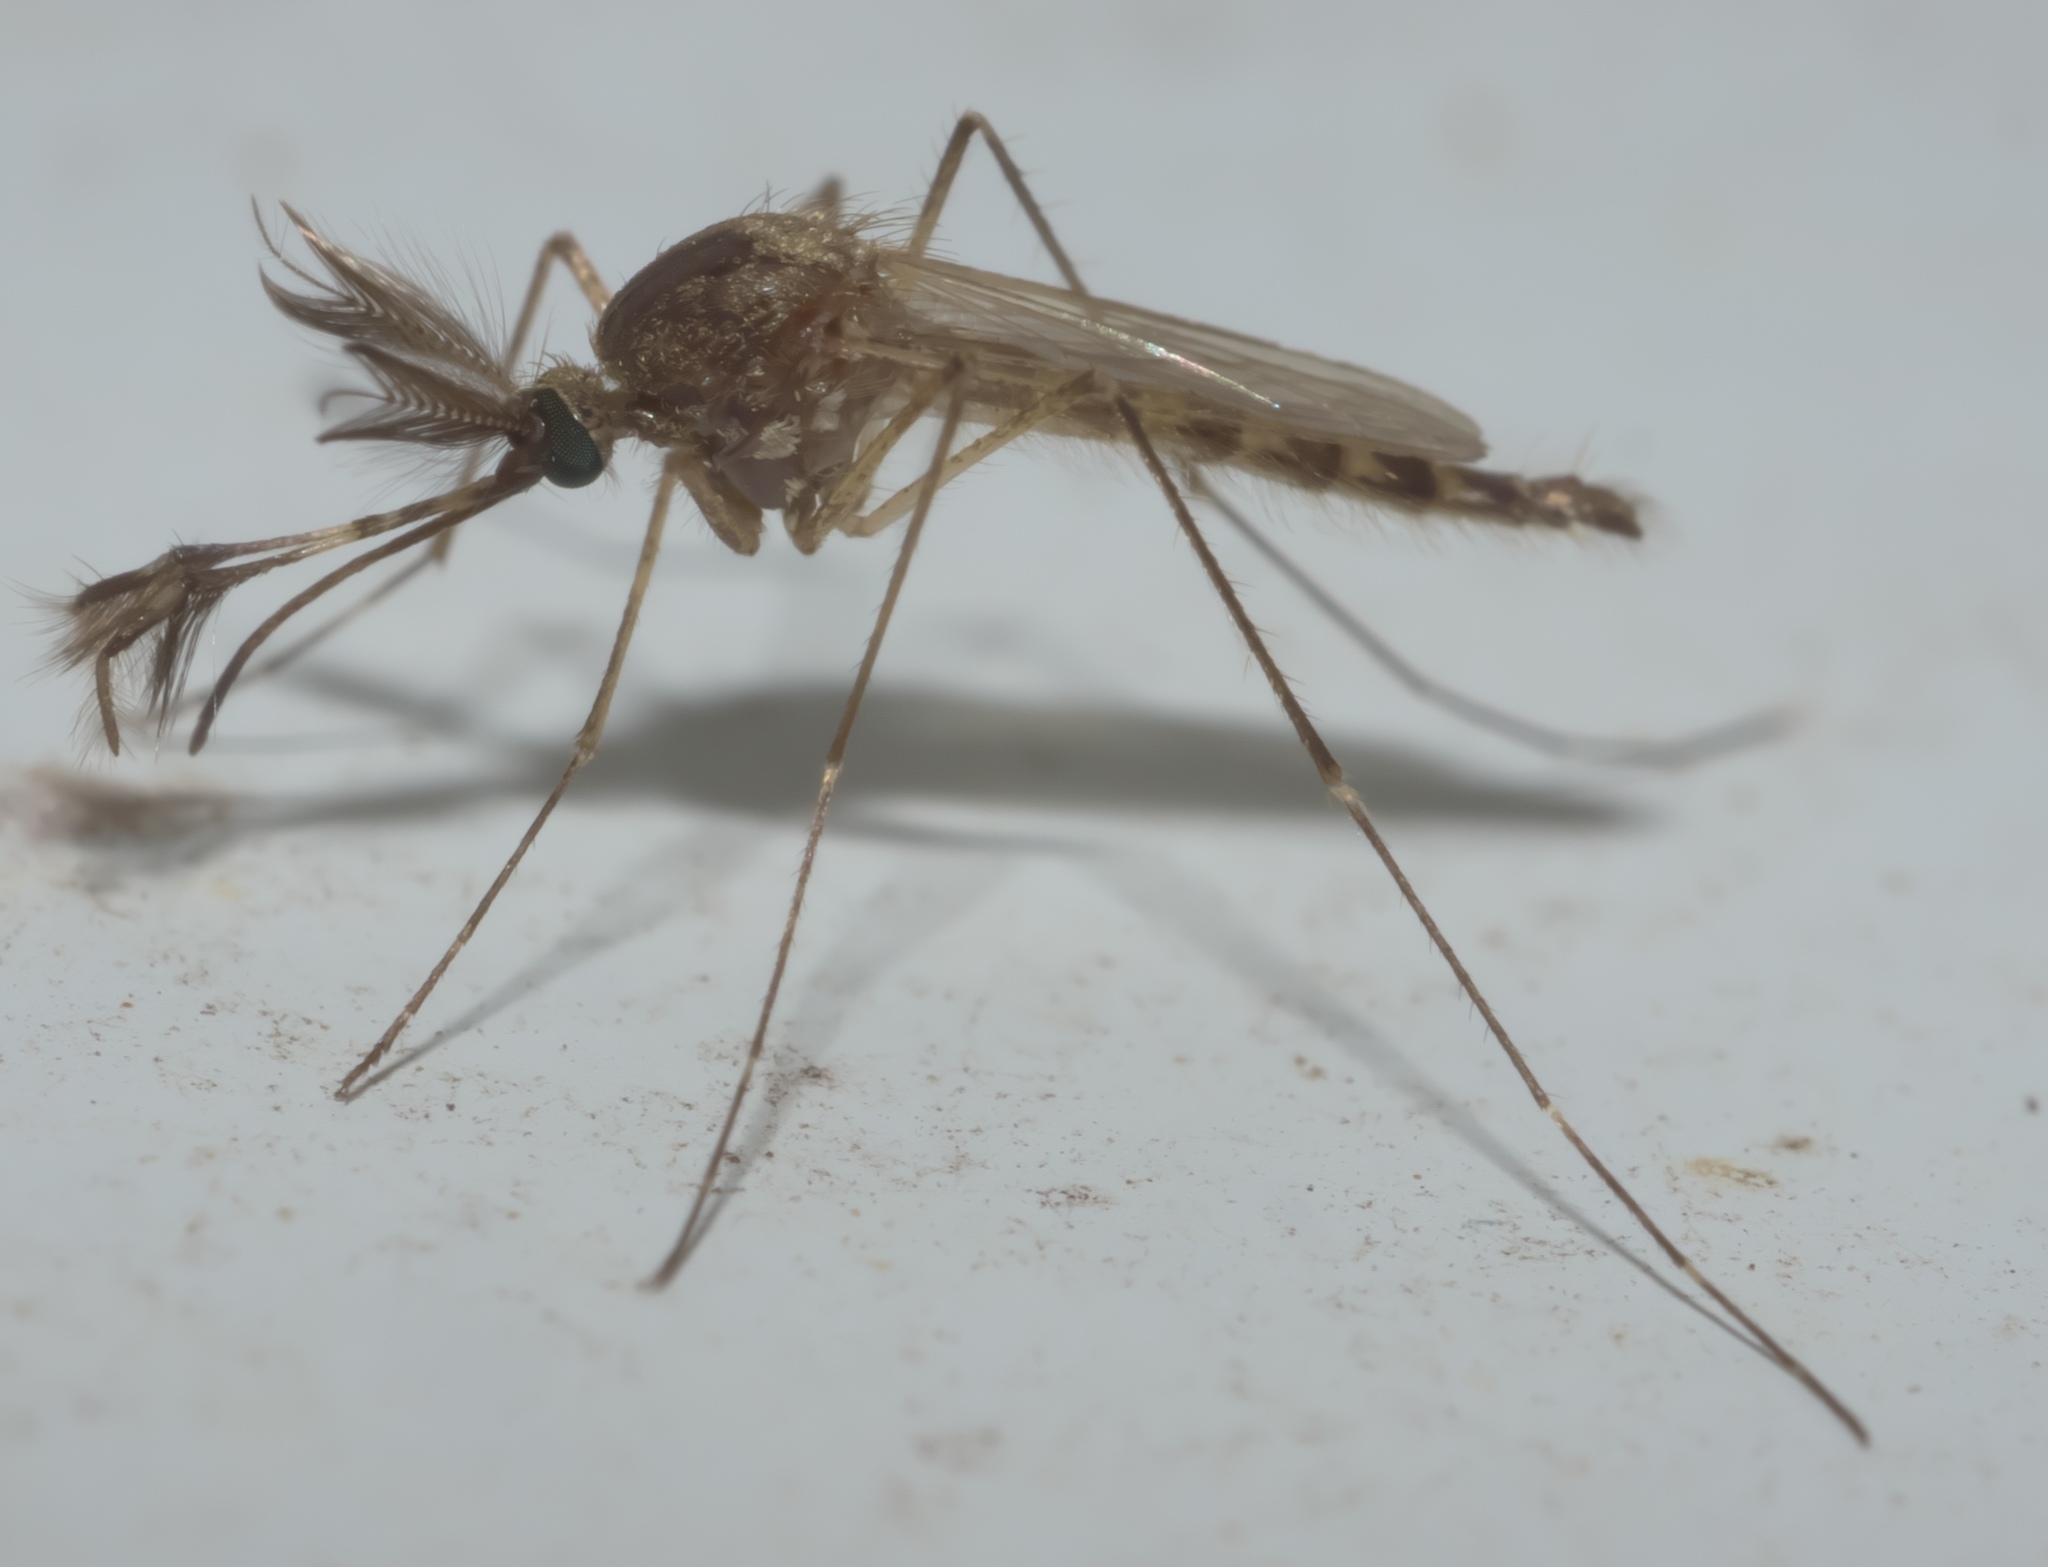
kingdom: Animalia
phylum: Arthropoda
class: Insecta
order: Diptera
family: Culicidae
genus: Aedes
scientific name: Aedes vexans
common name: Inland floodwater mosquito
